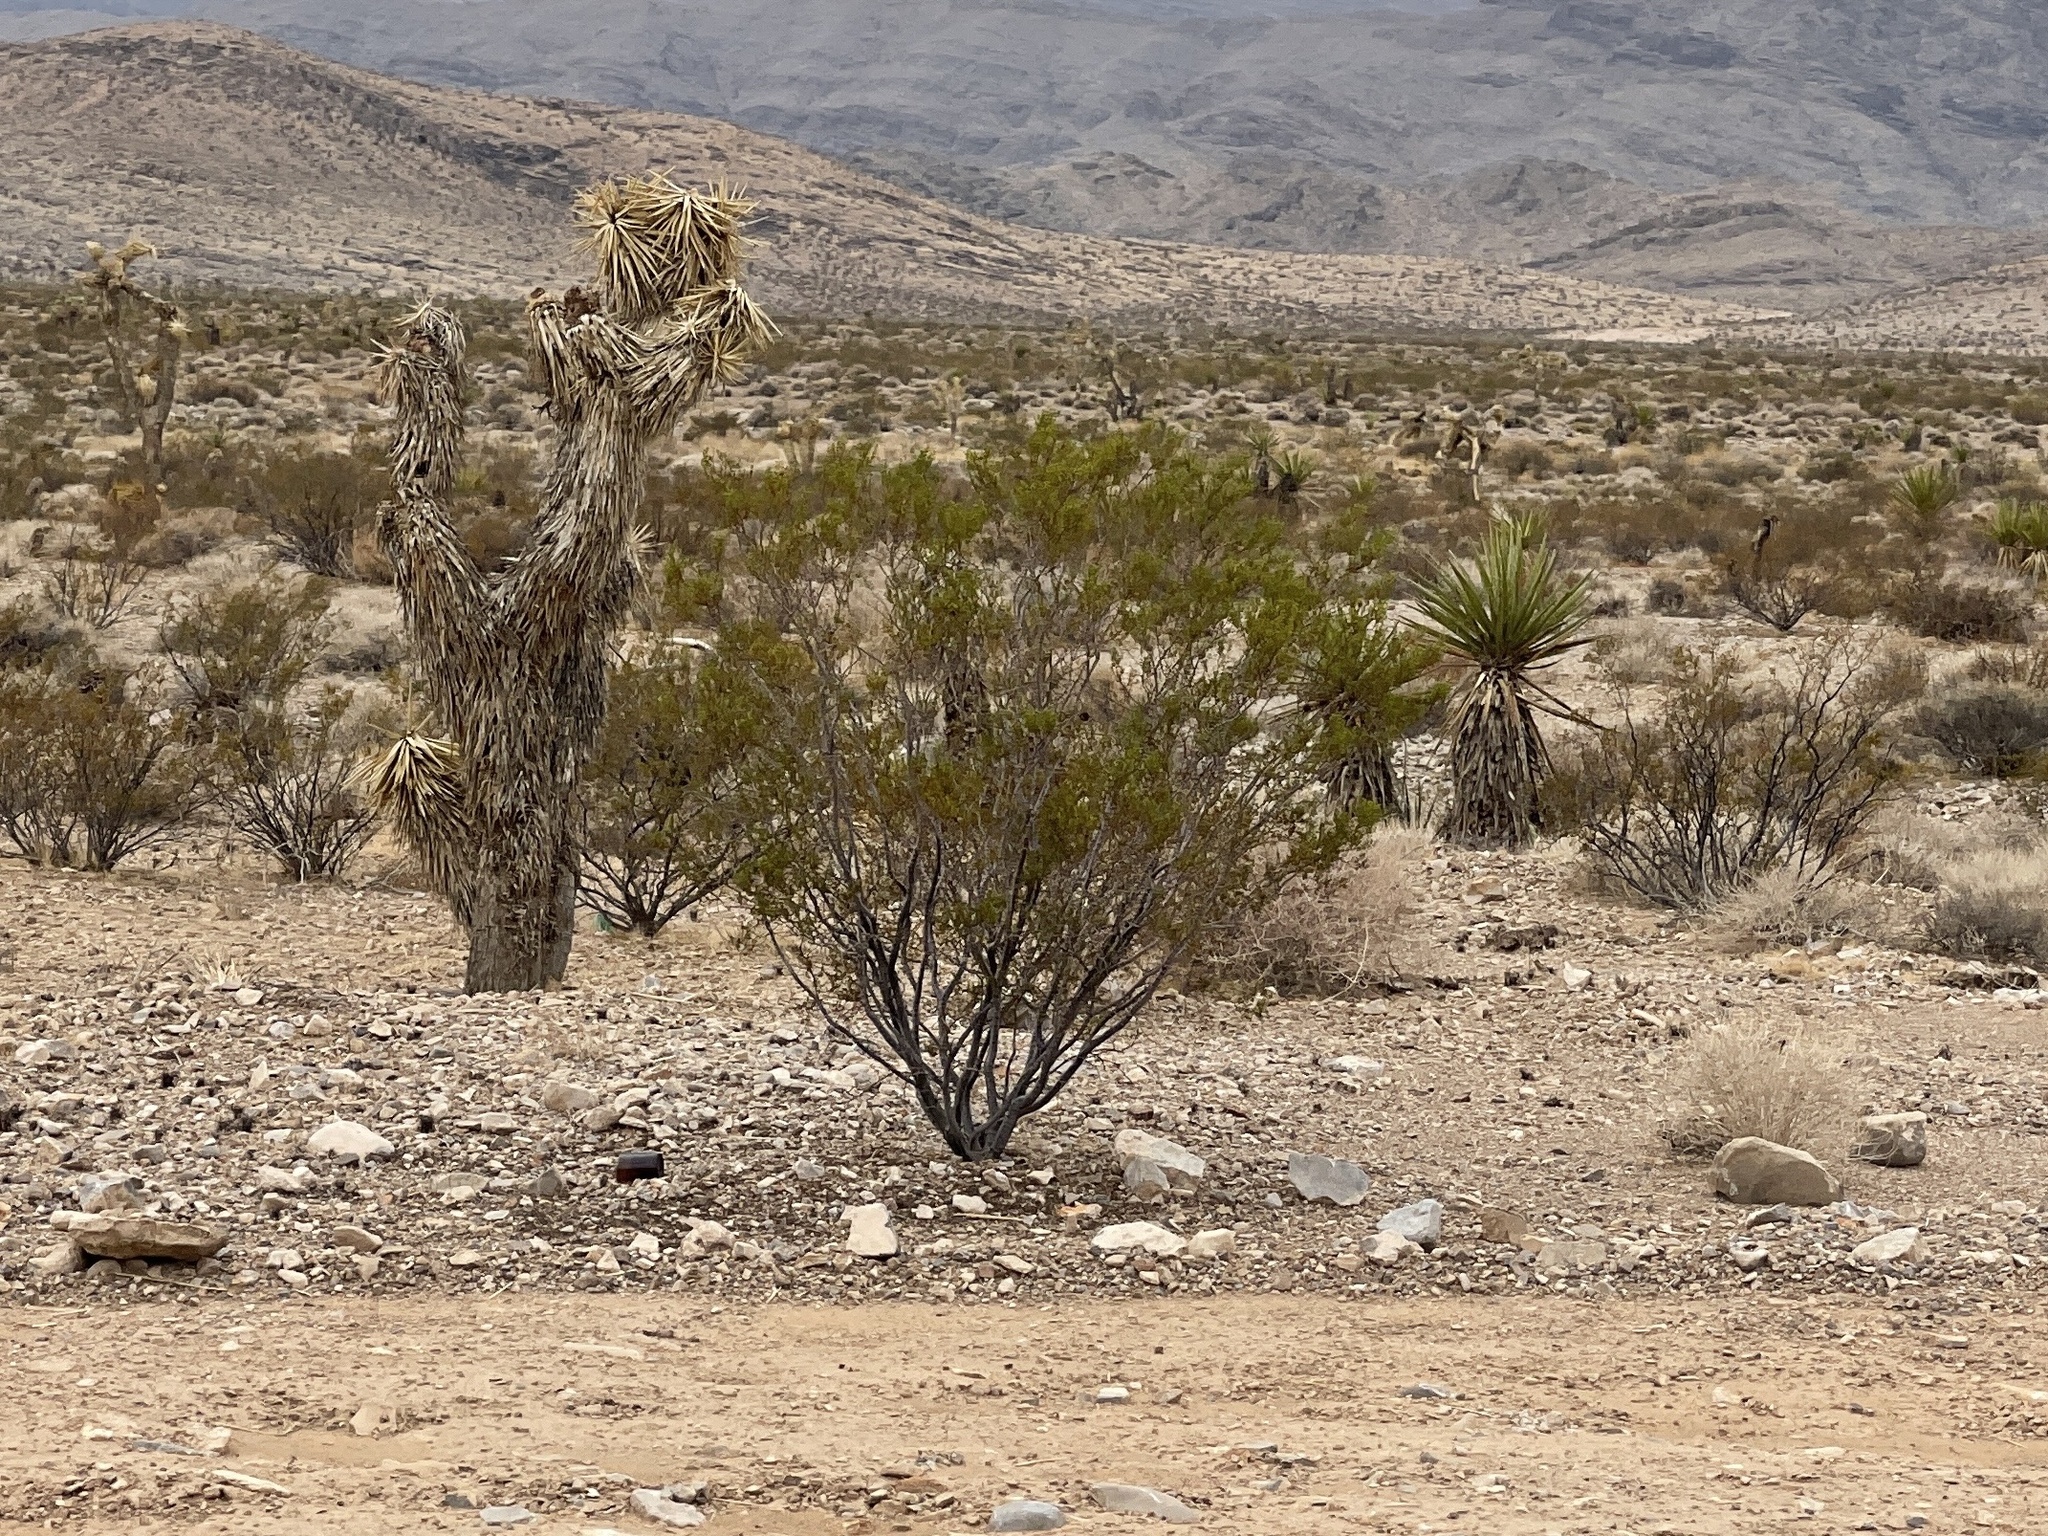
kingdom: Plantae
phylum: Tracheophyta
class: Magnoliopsida
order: Zygophyllales
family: Zygophyllaceae
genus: Larrea
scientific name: Larrea tridentata
